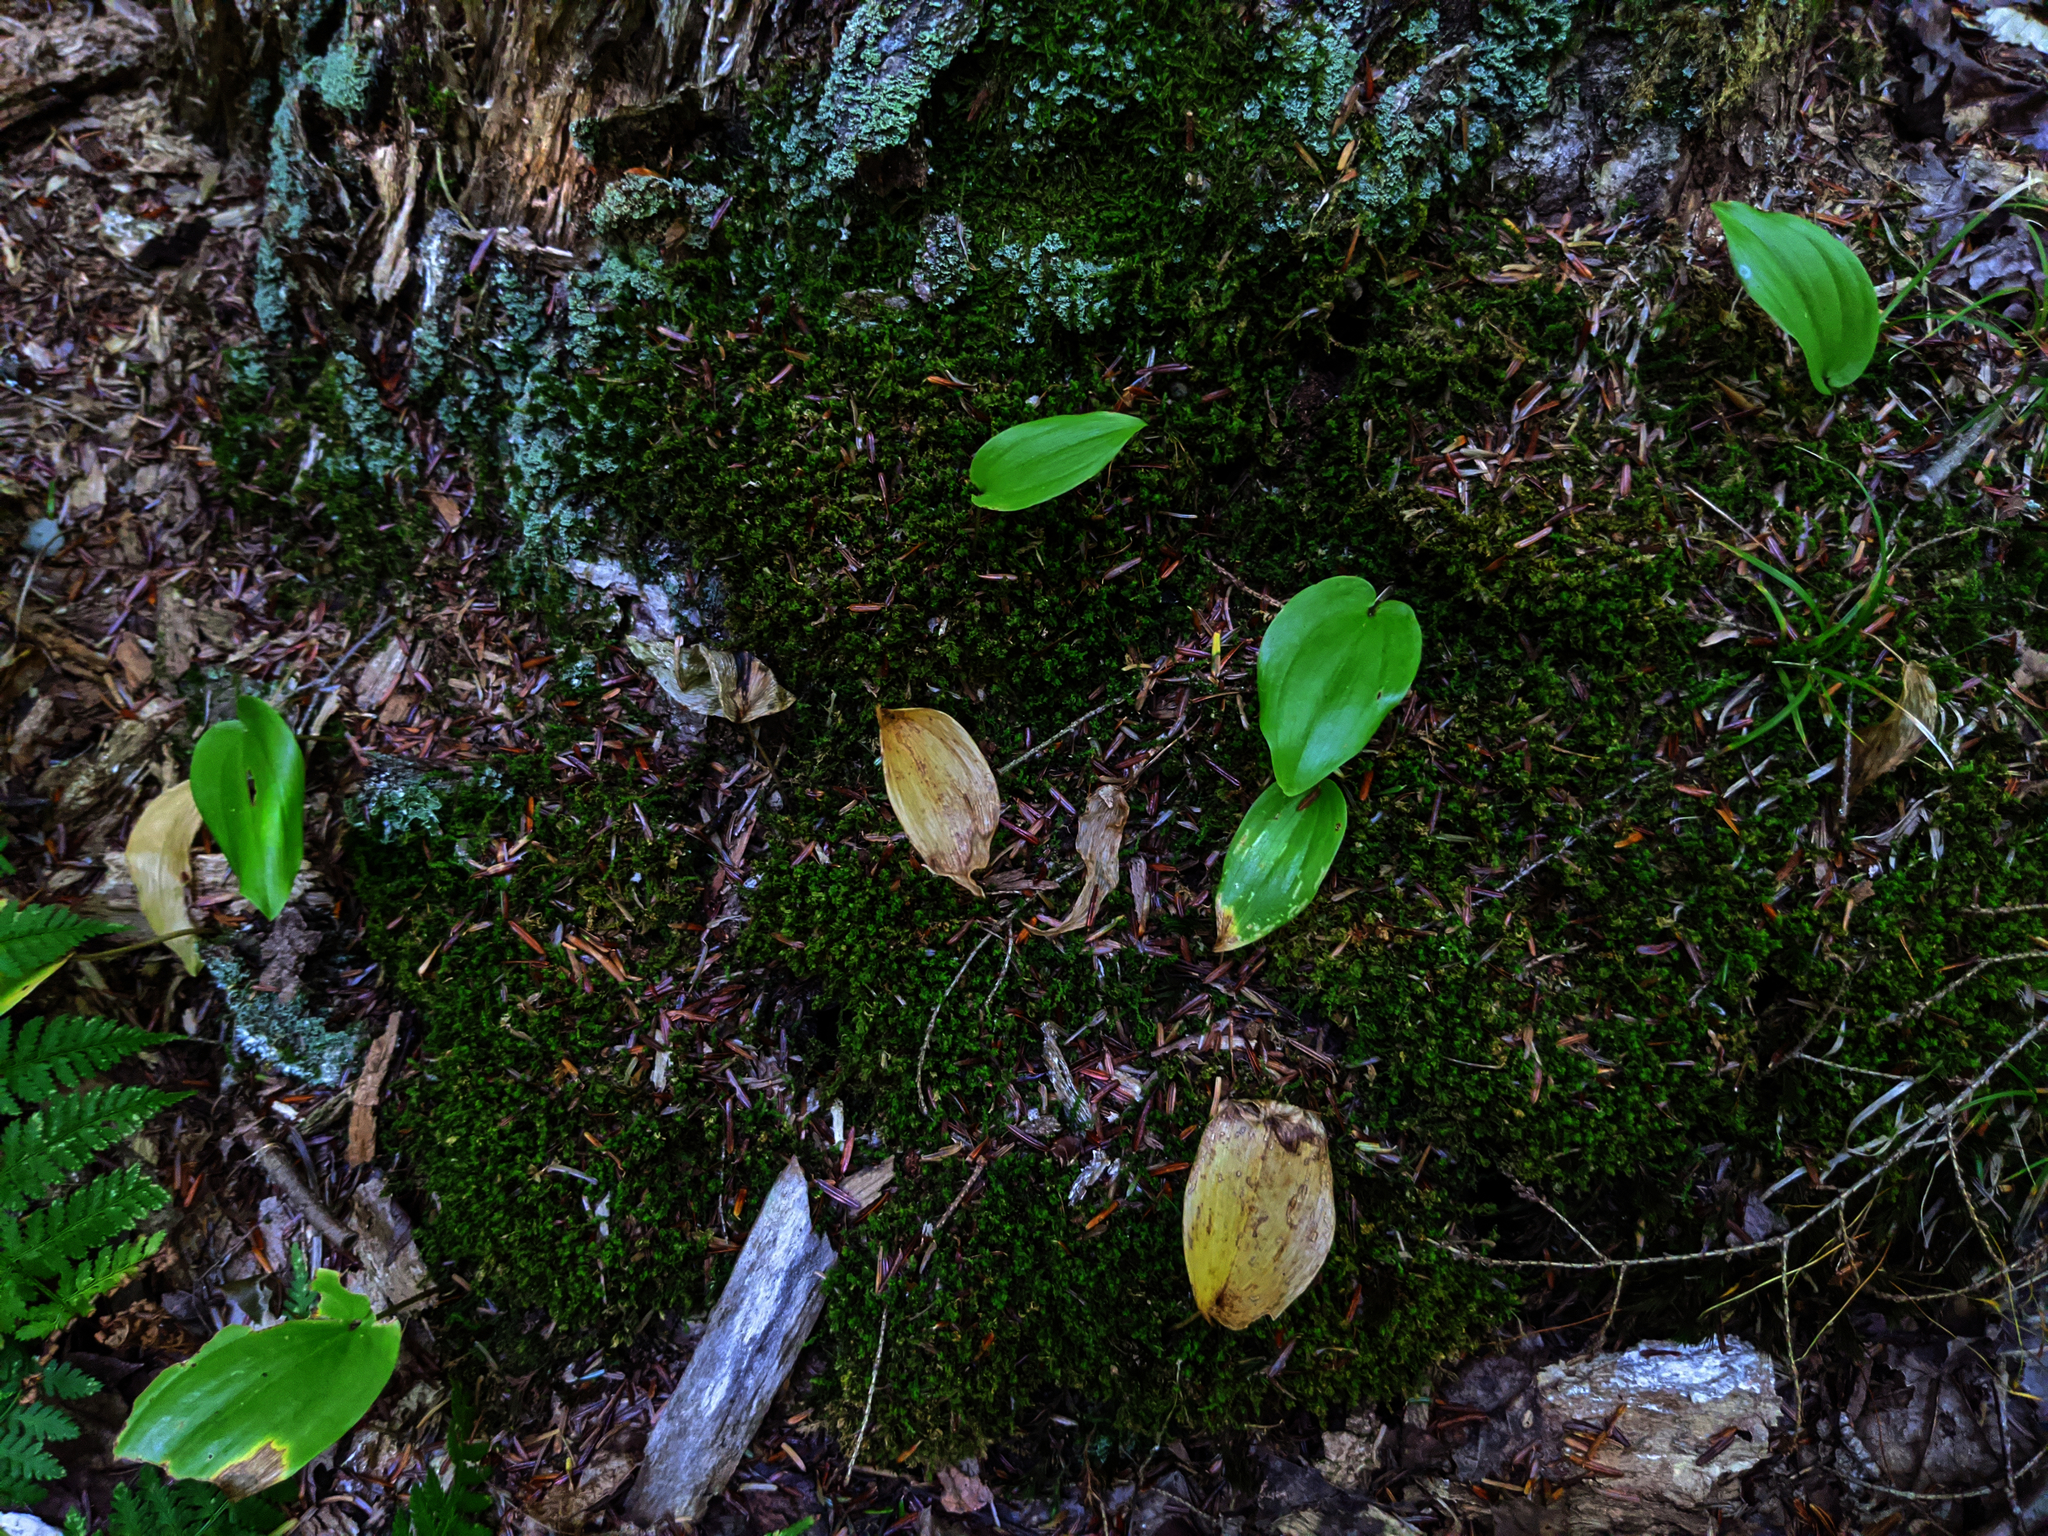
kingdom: Plantae
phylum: Tracheophyta
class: Liliopsida
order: Asparagales
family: Asparagaceae
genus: Maianthemum
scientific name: Maianthemum canadense
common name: False lily-of-the-valley
